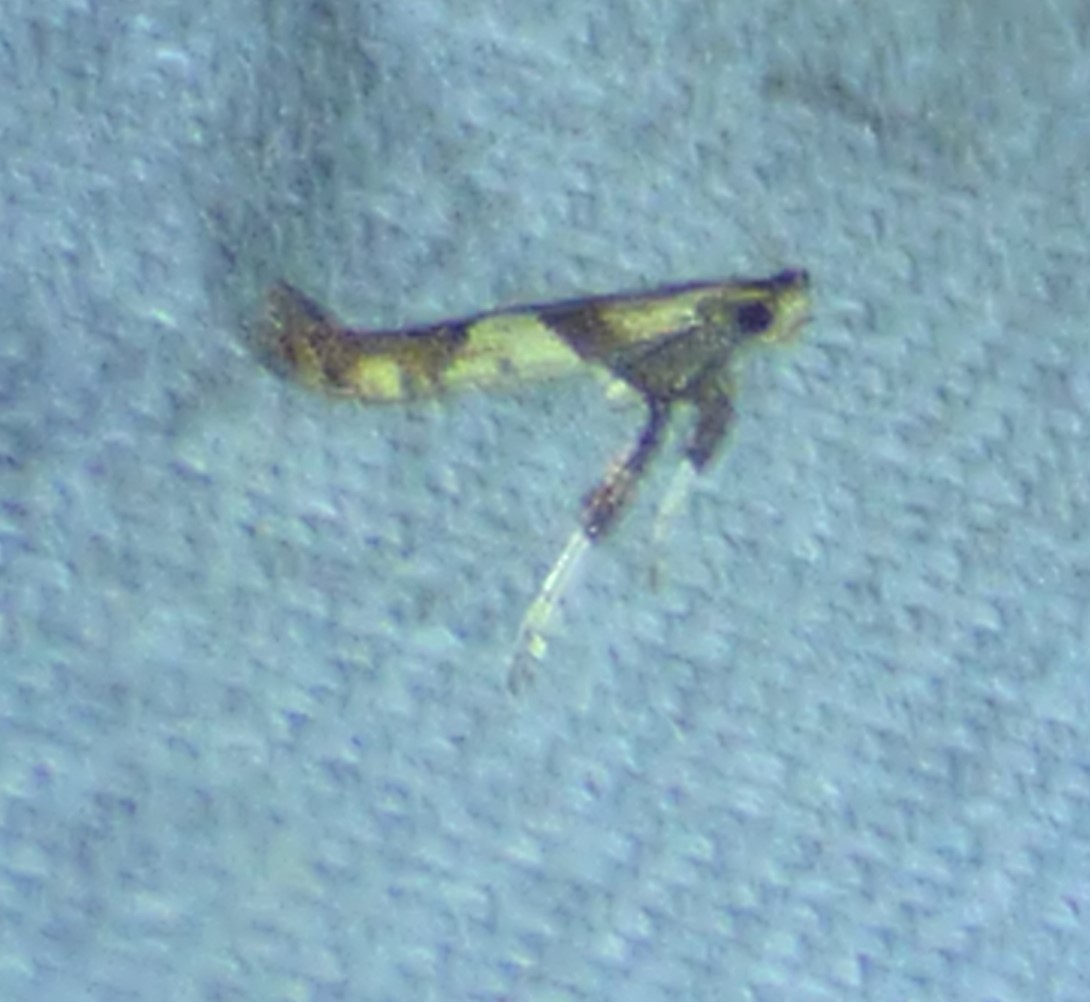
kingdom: Animalia
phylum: Arthropoda
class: Insecta
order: Lepidoptera
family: Gracillariidae
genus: Caloptilia
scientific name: Caloptilia bimaculatella
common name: Maple caloptilia moth
